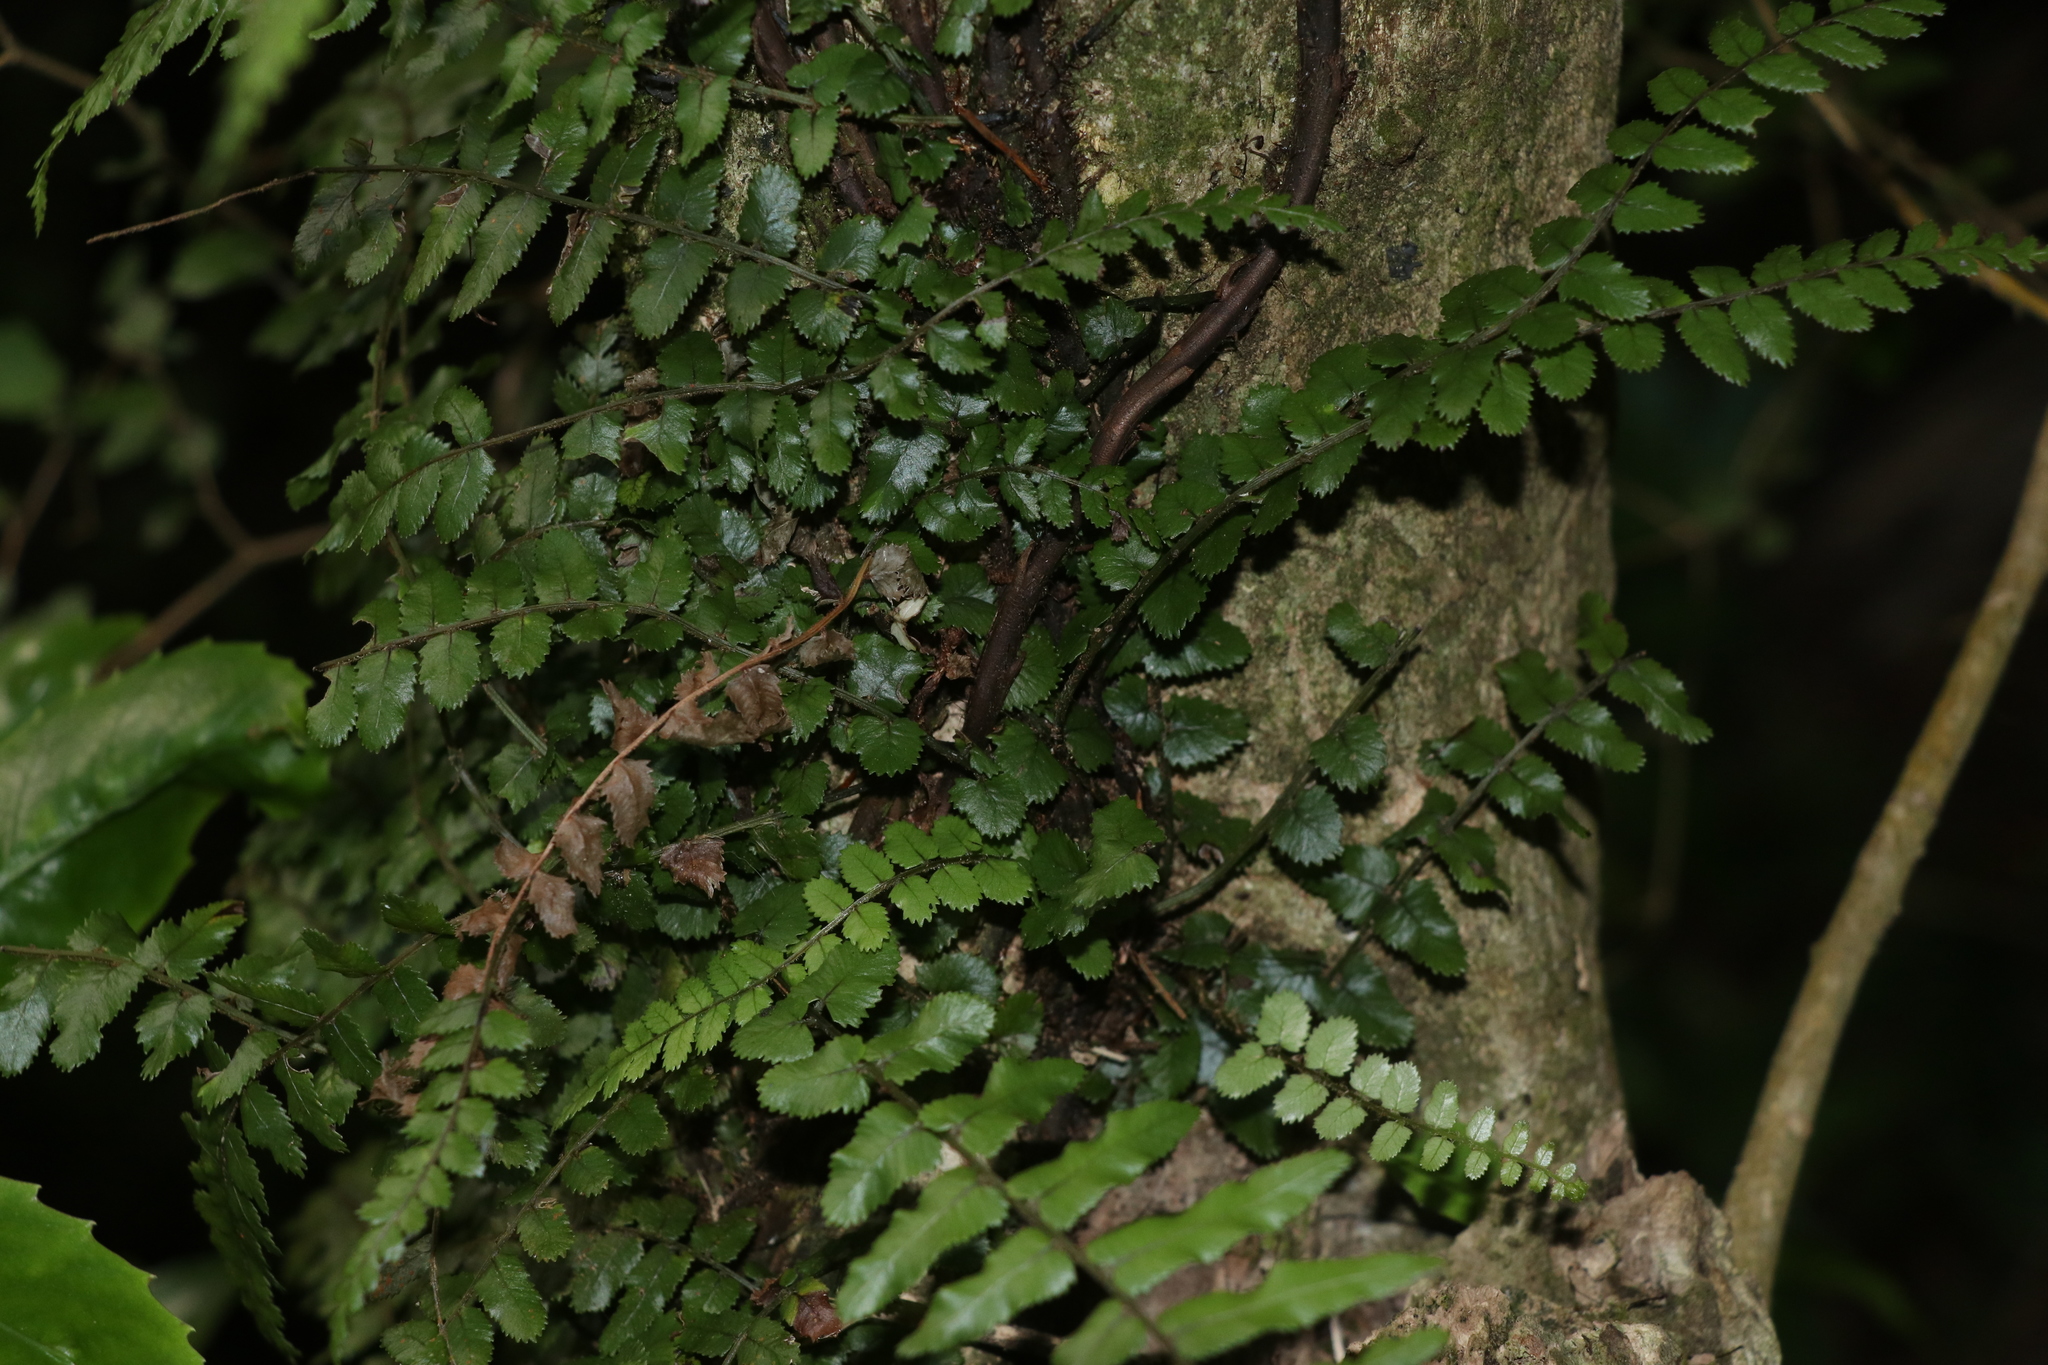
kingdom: Plantae
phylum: Tracheophyta
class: Polypodiopsida
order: Polypodiales
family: Blechnaceae
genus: Icarus
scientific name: Icarus filiformis
